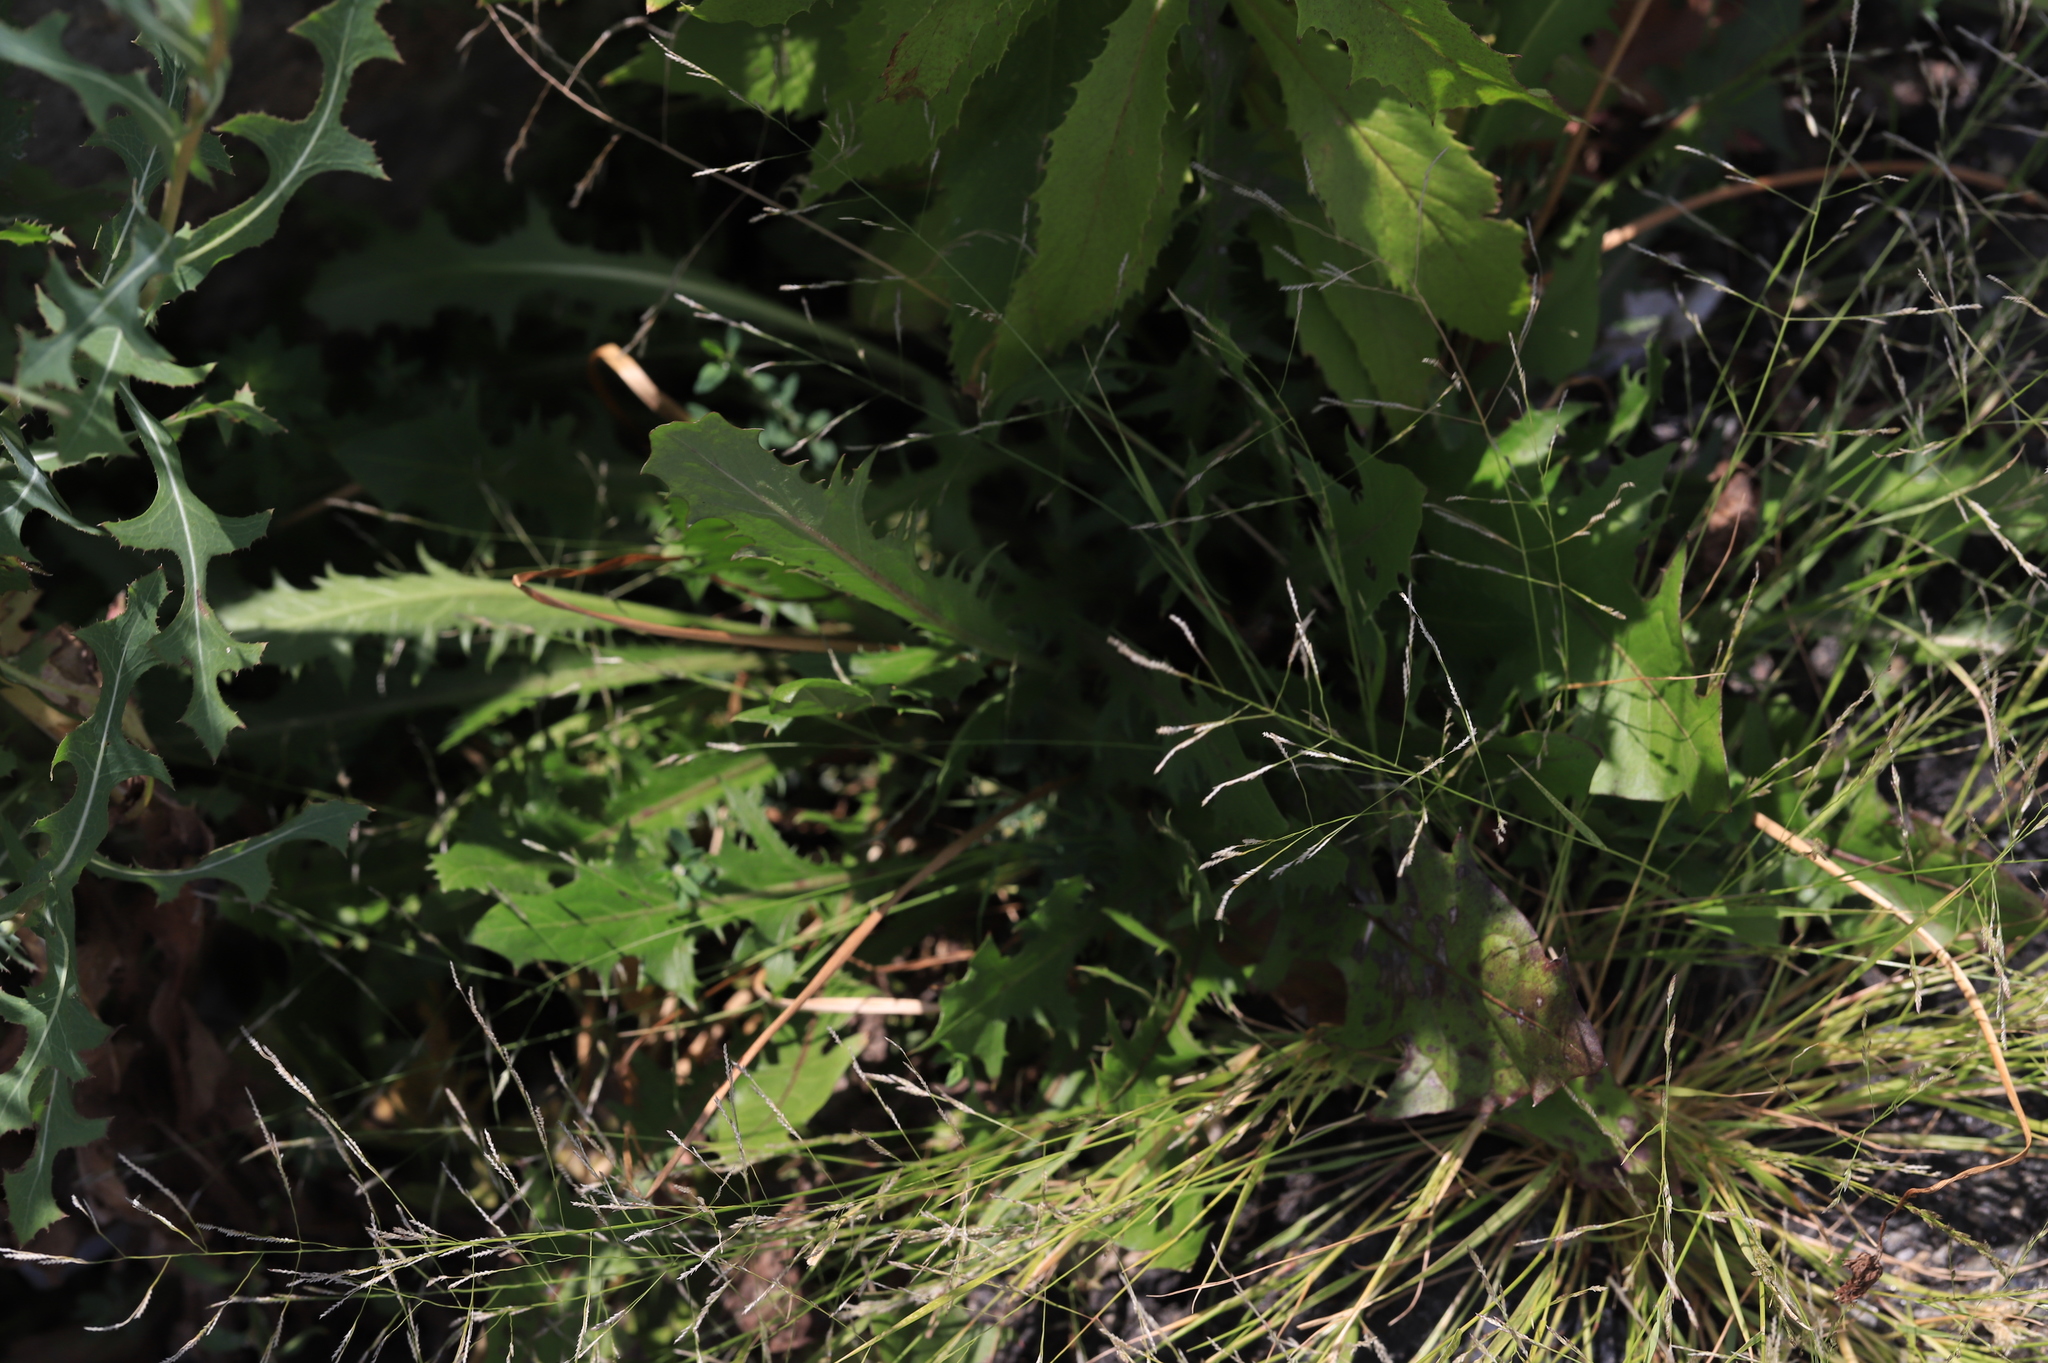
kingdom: Plantae
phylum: Tracheophyta
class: Magnoliopsida
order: Asterales
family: Asteraceae
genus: Taraxacum
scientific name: Taraxacum officinale
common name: Common dandelion
